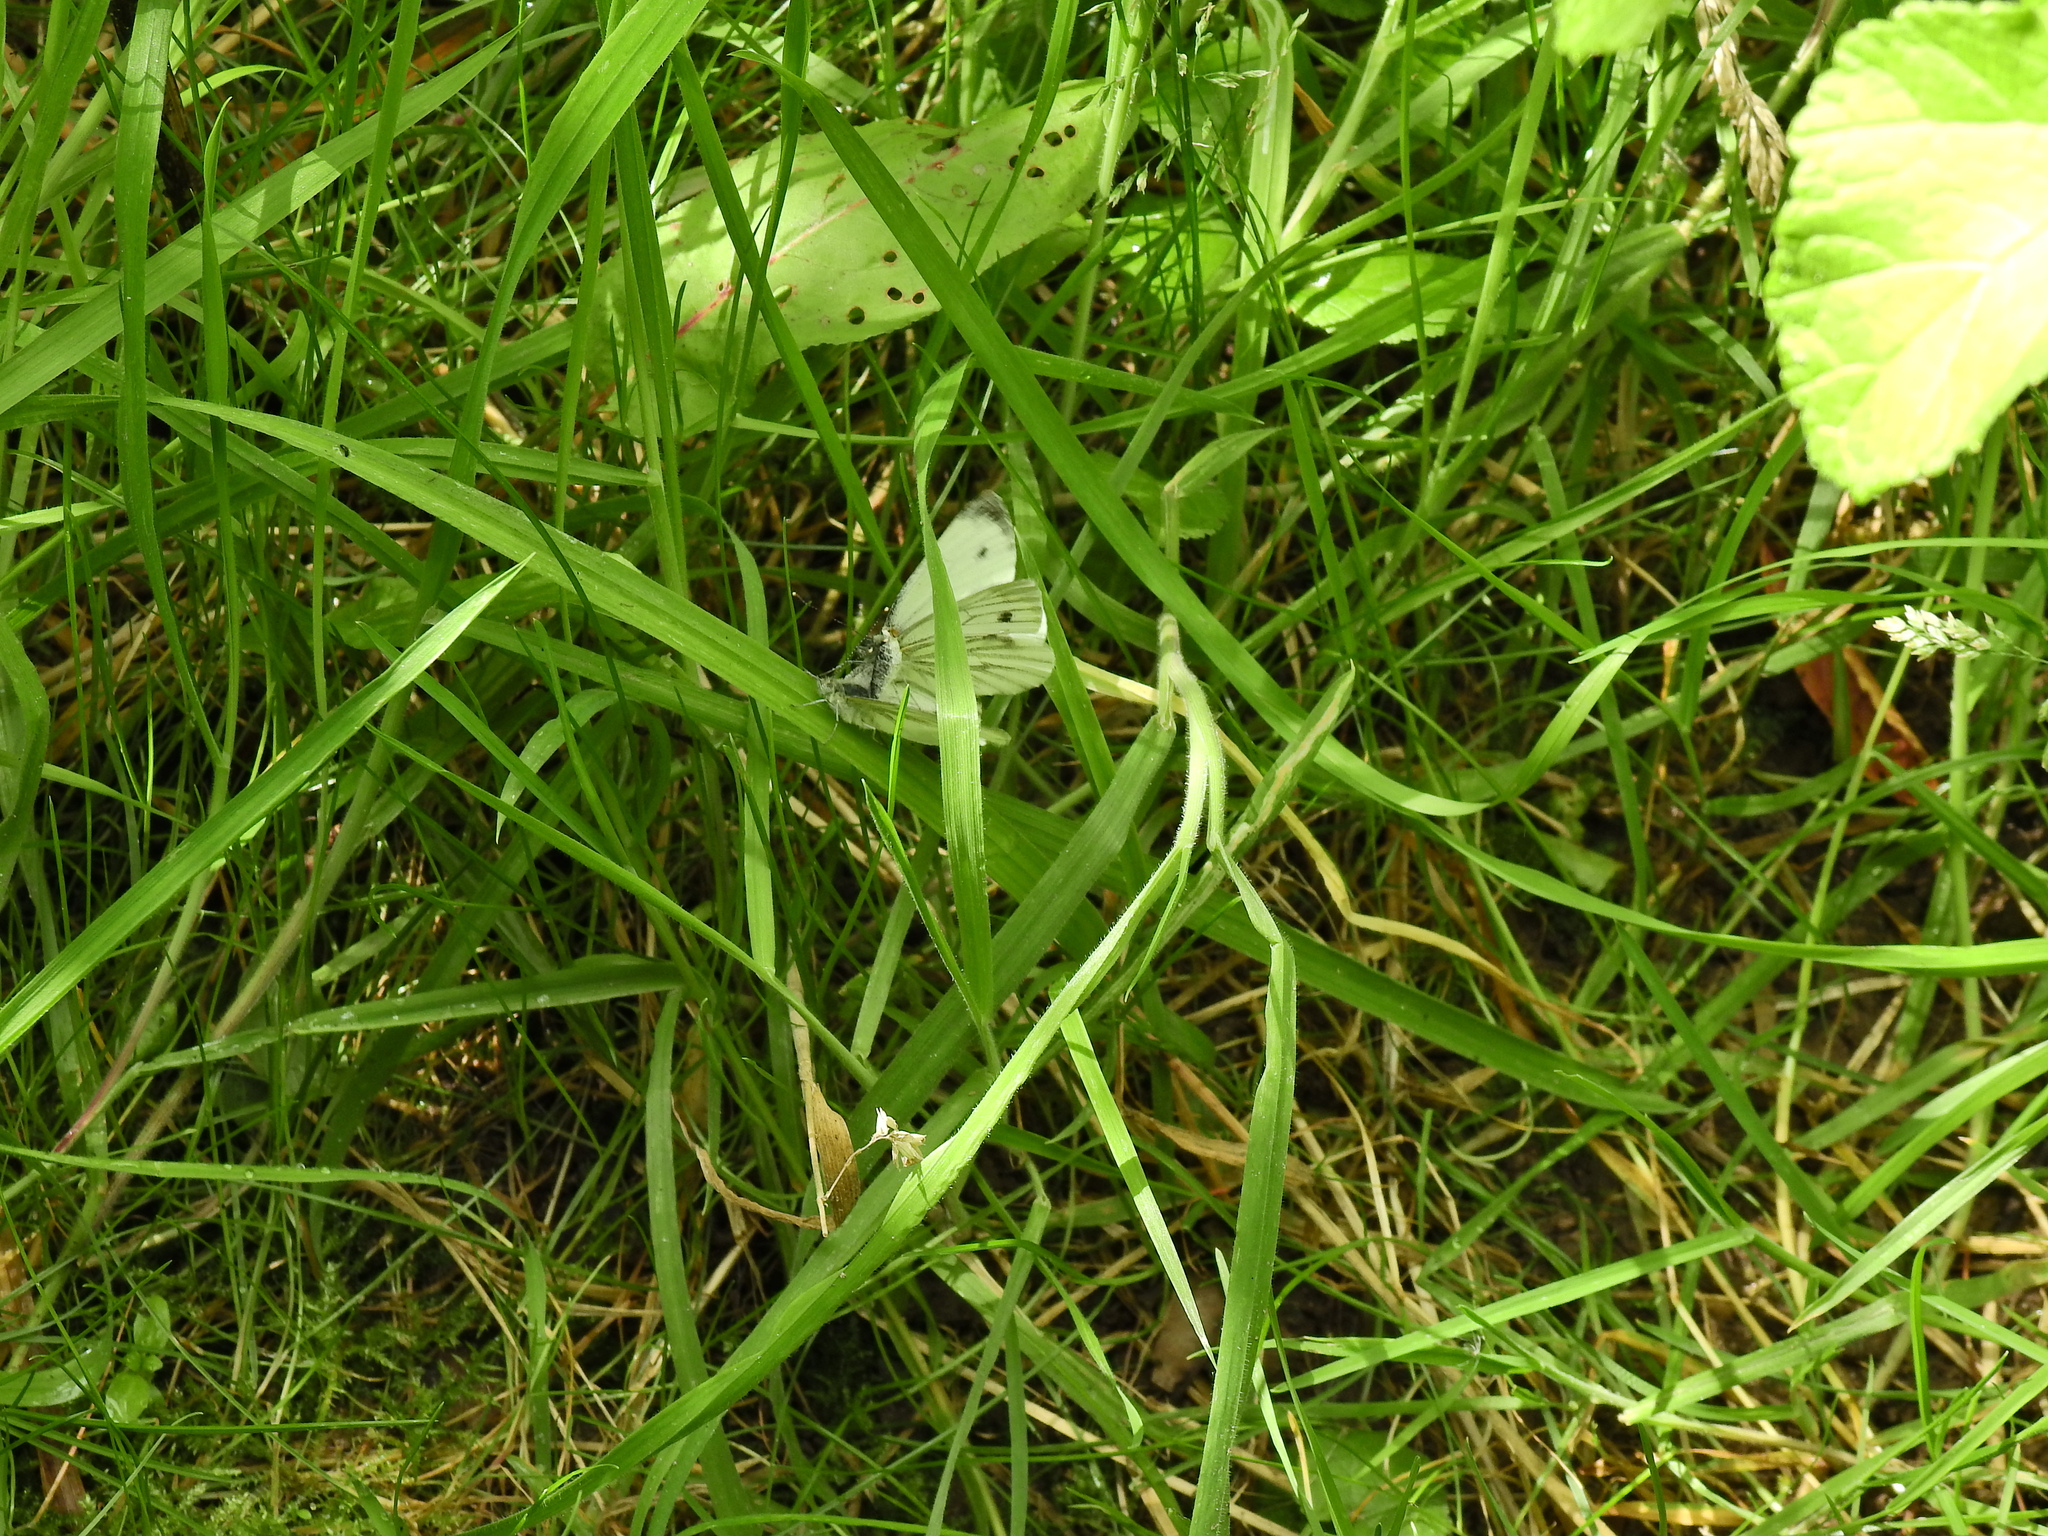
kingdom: Animalia
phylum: Arthropoda
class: Insecta
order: Lepidoptera
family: Pieridae
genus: Pieris
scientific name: Pieris napi
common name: Green-veined white
